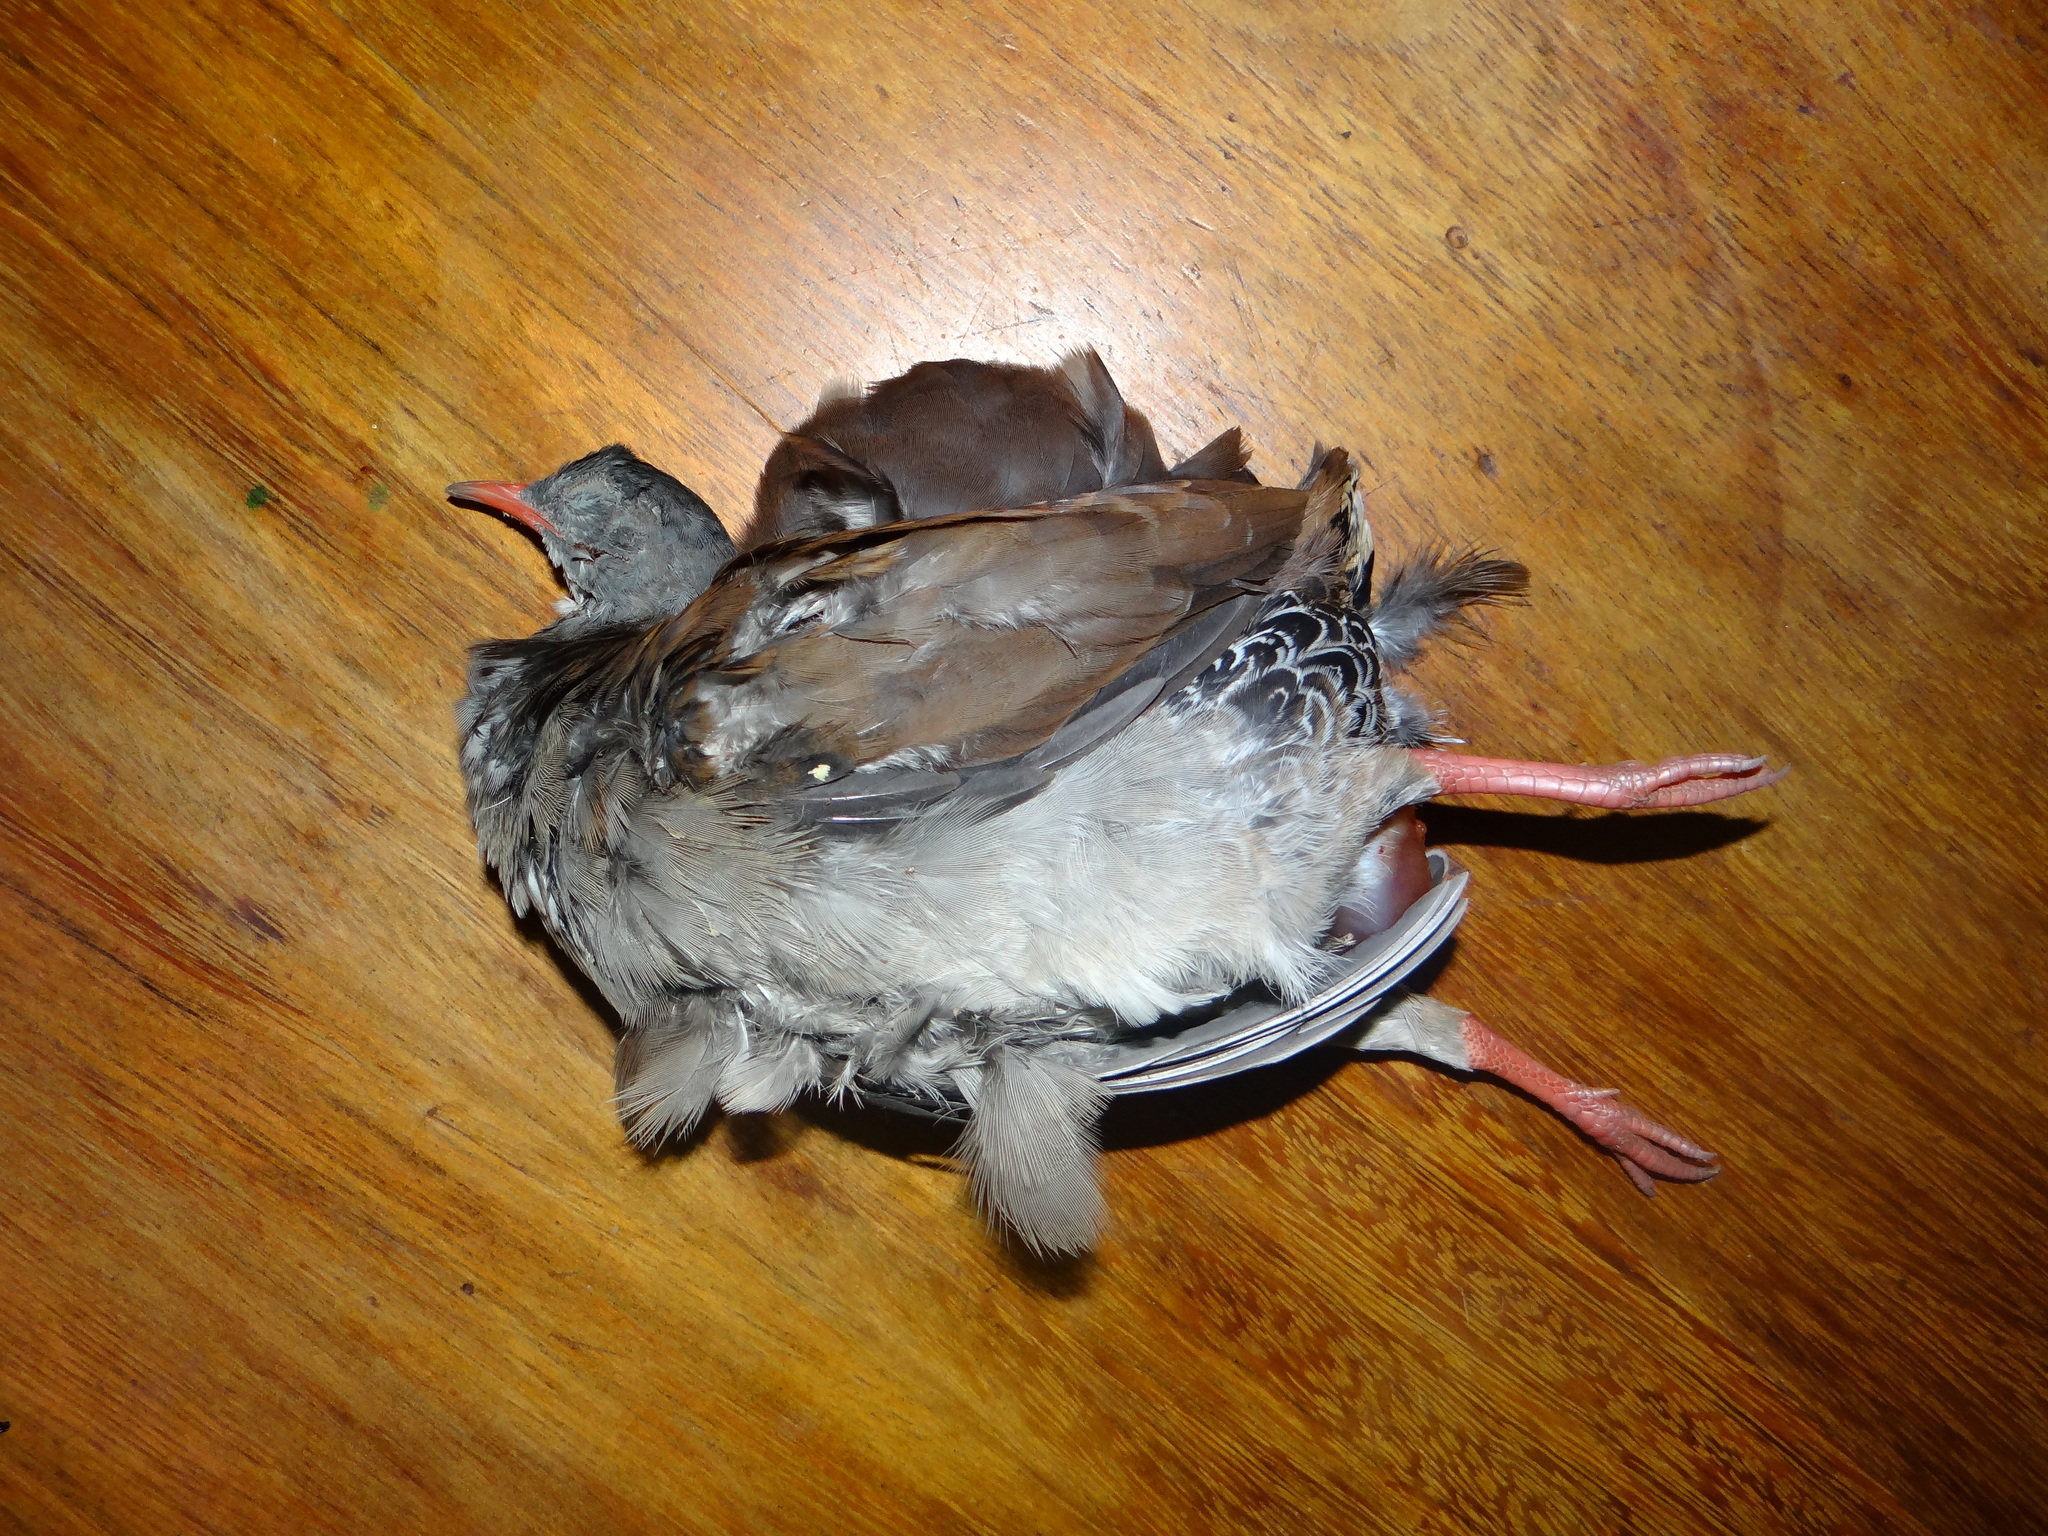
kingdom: Animalia
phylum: Chordata
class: Aves
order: Tinamiformes
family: Tinamidae
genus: Crypturellus
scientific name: Crypturellus parvirostris
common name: Small-billed tinamou
